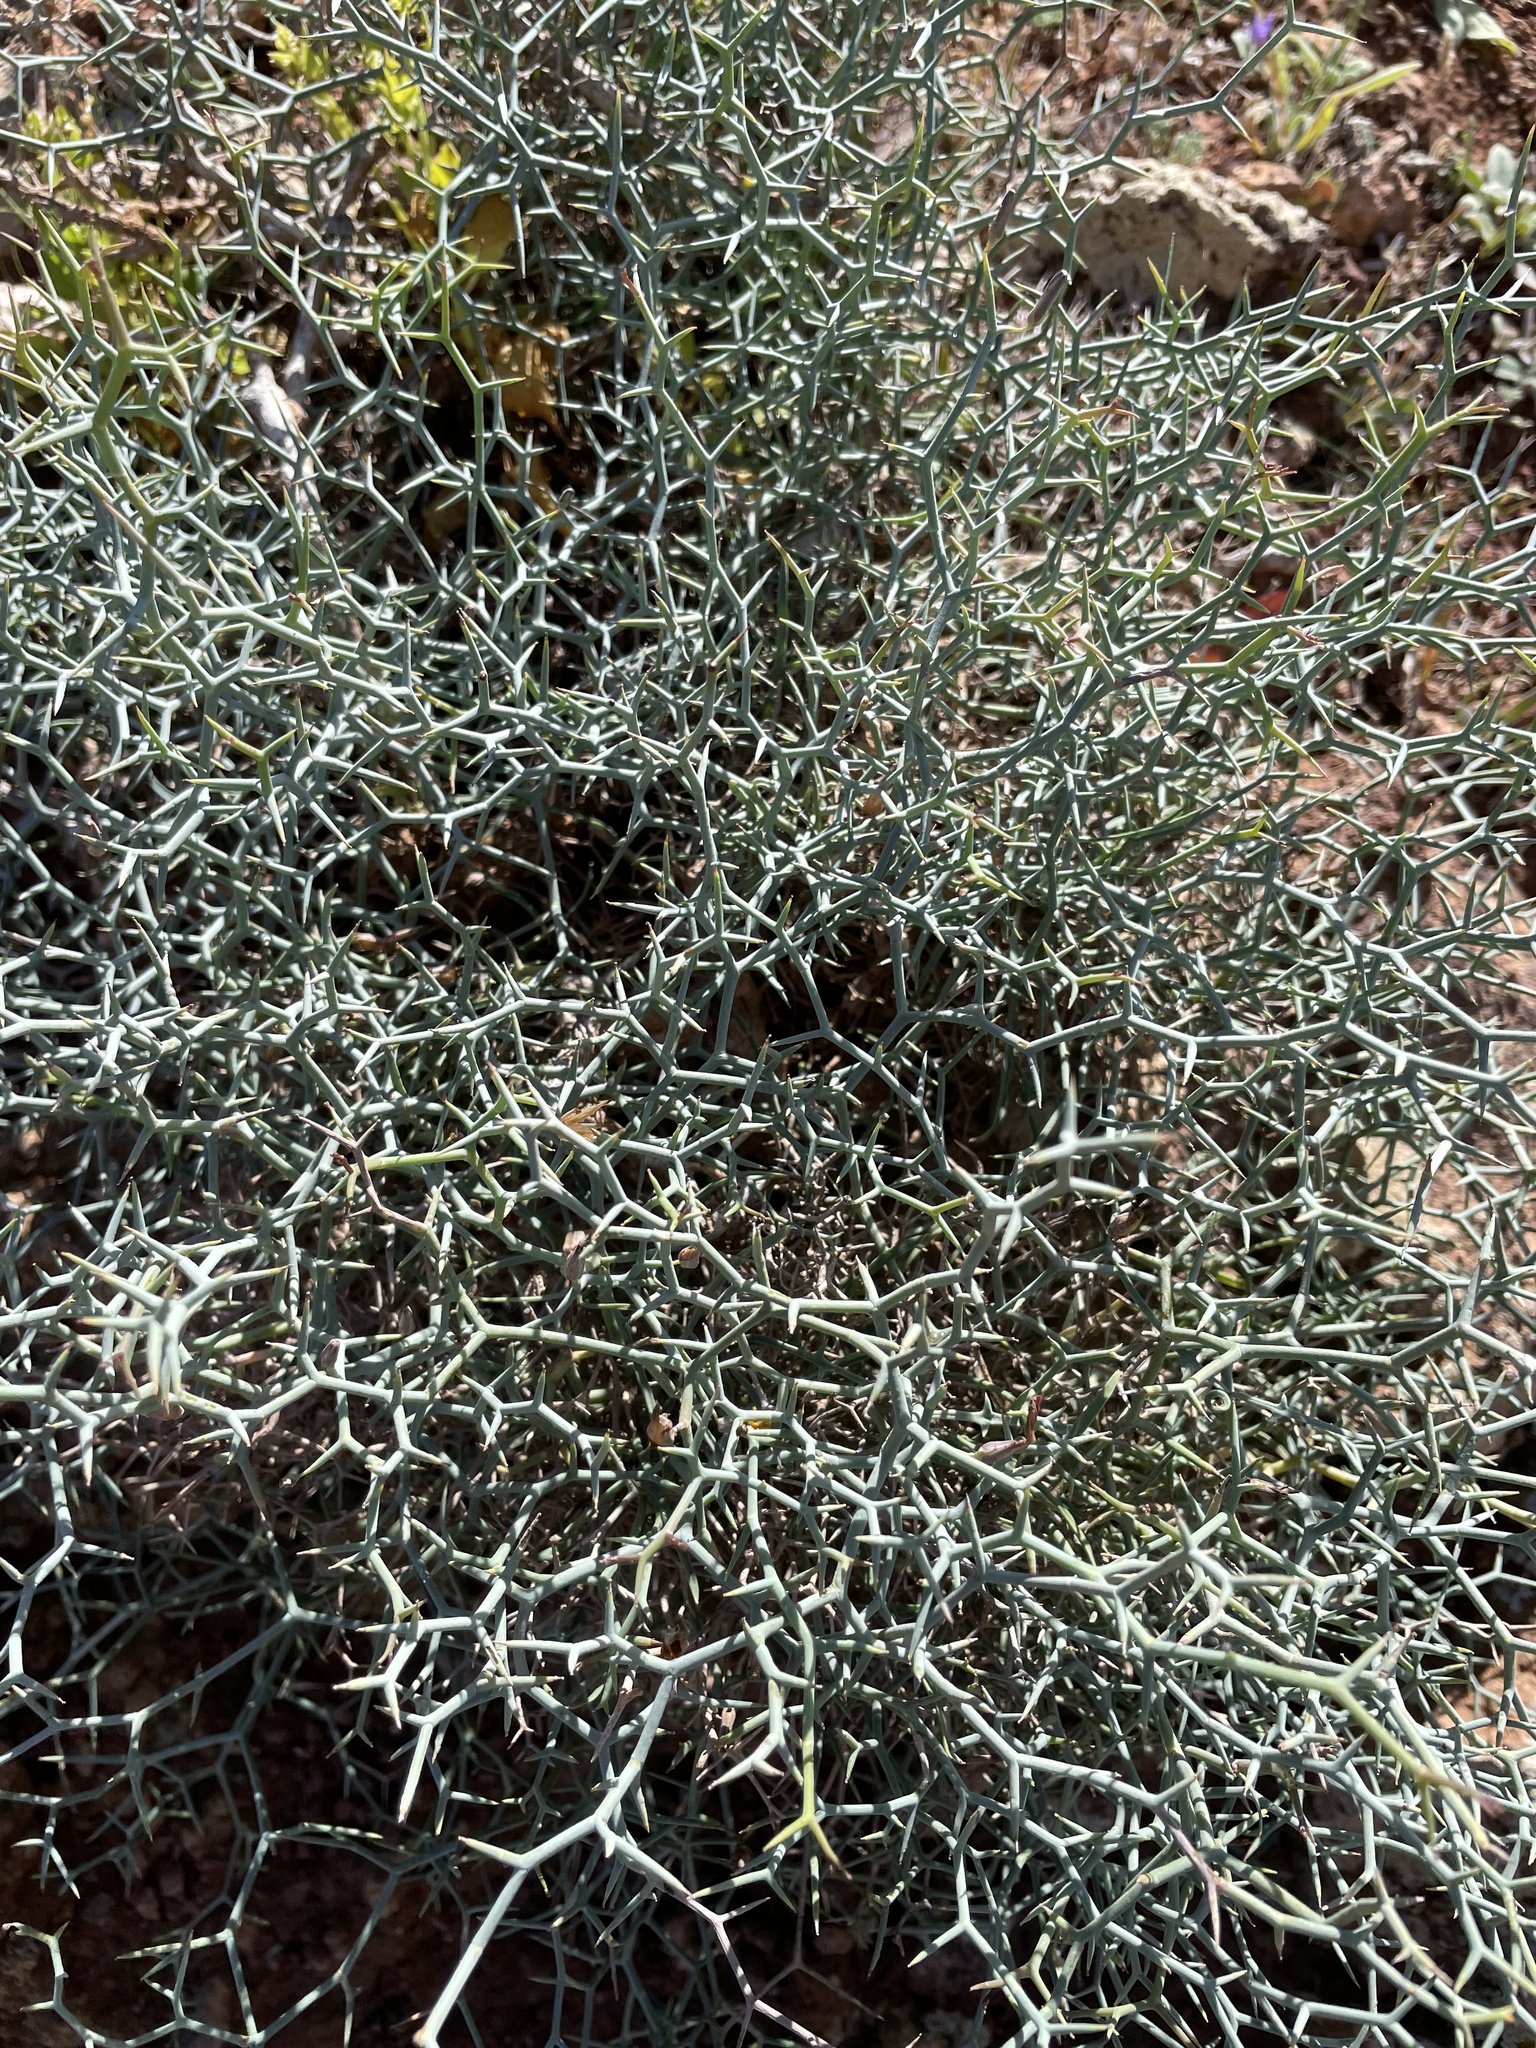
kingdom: Plantae
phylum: Tracheophyta
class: Magnoliopsida
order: Asterales
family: Asteraceae
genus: Launaea
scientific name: Launaea arborescens
